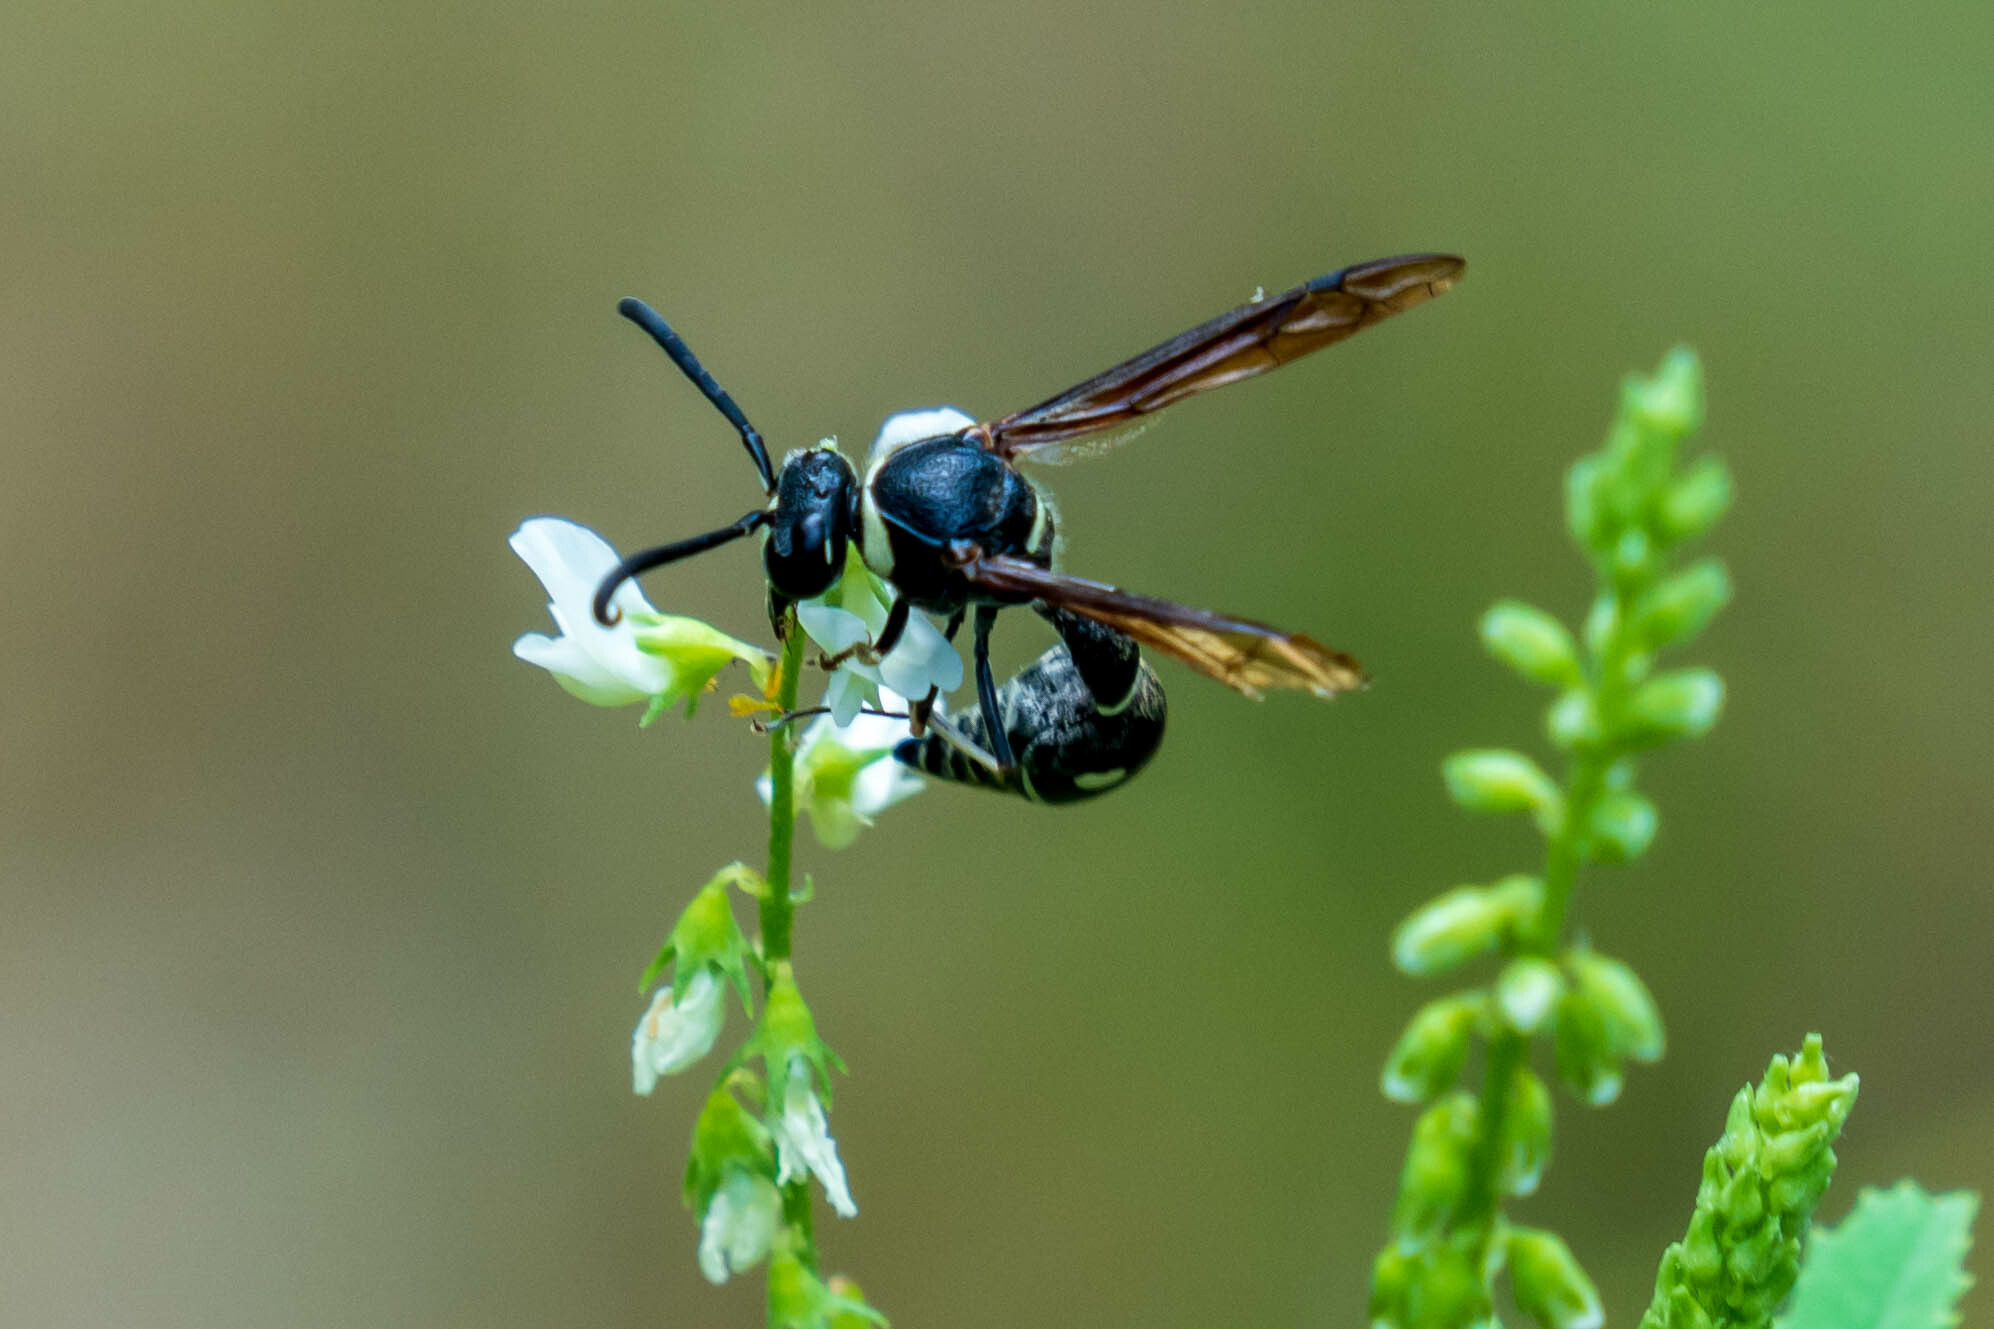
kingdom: Animalia
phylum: Arthropoda
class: Insecta
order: Hymenoptera
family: Vespidae
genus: Eumenes
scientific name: Eumenes fraternus
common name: Fraternal potter wasp
